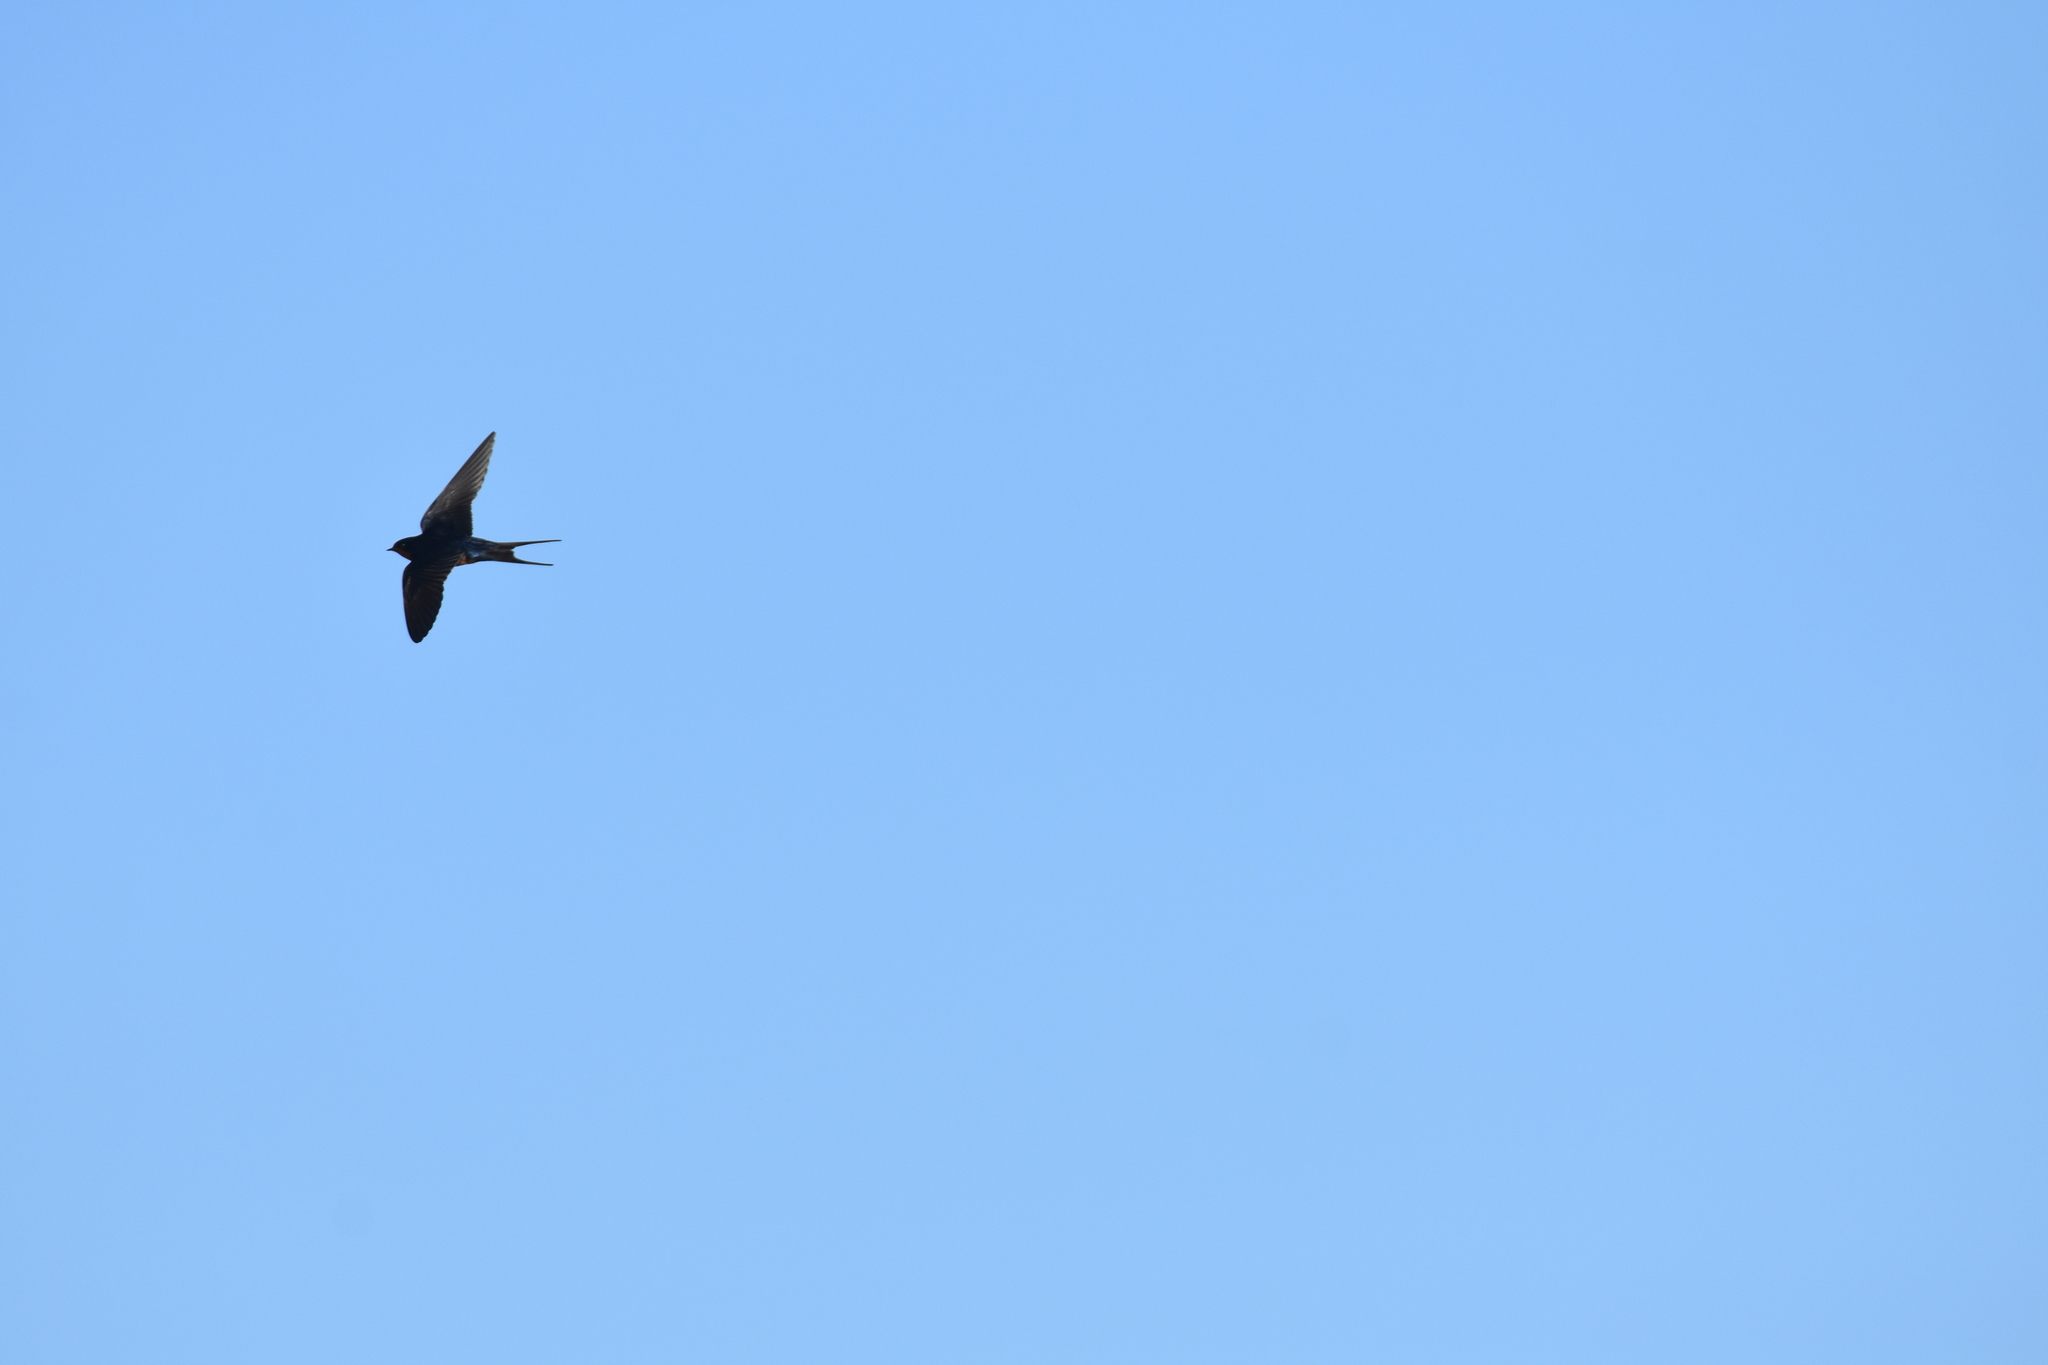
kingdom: Animalia
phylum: Chordata
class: Aves
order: Passeriformes
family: Hirundinidae
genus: Hirundo
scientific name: Hirundo rustica
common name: Barn swallow
